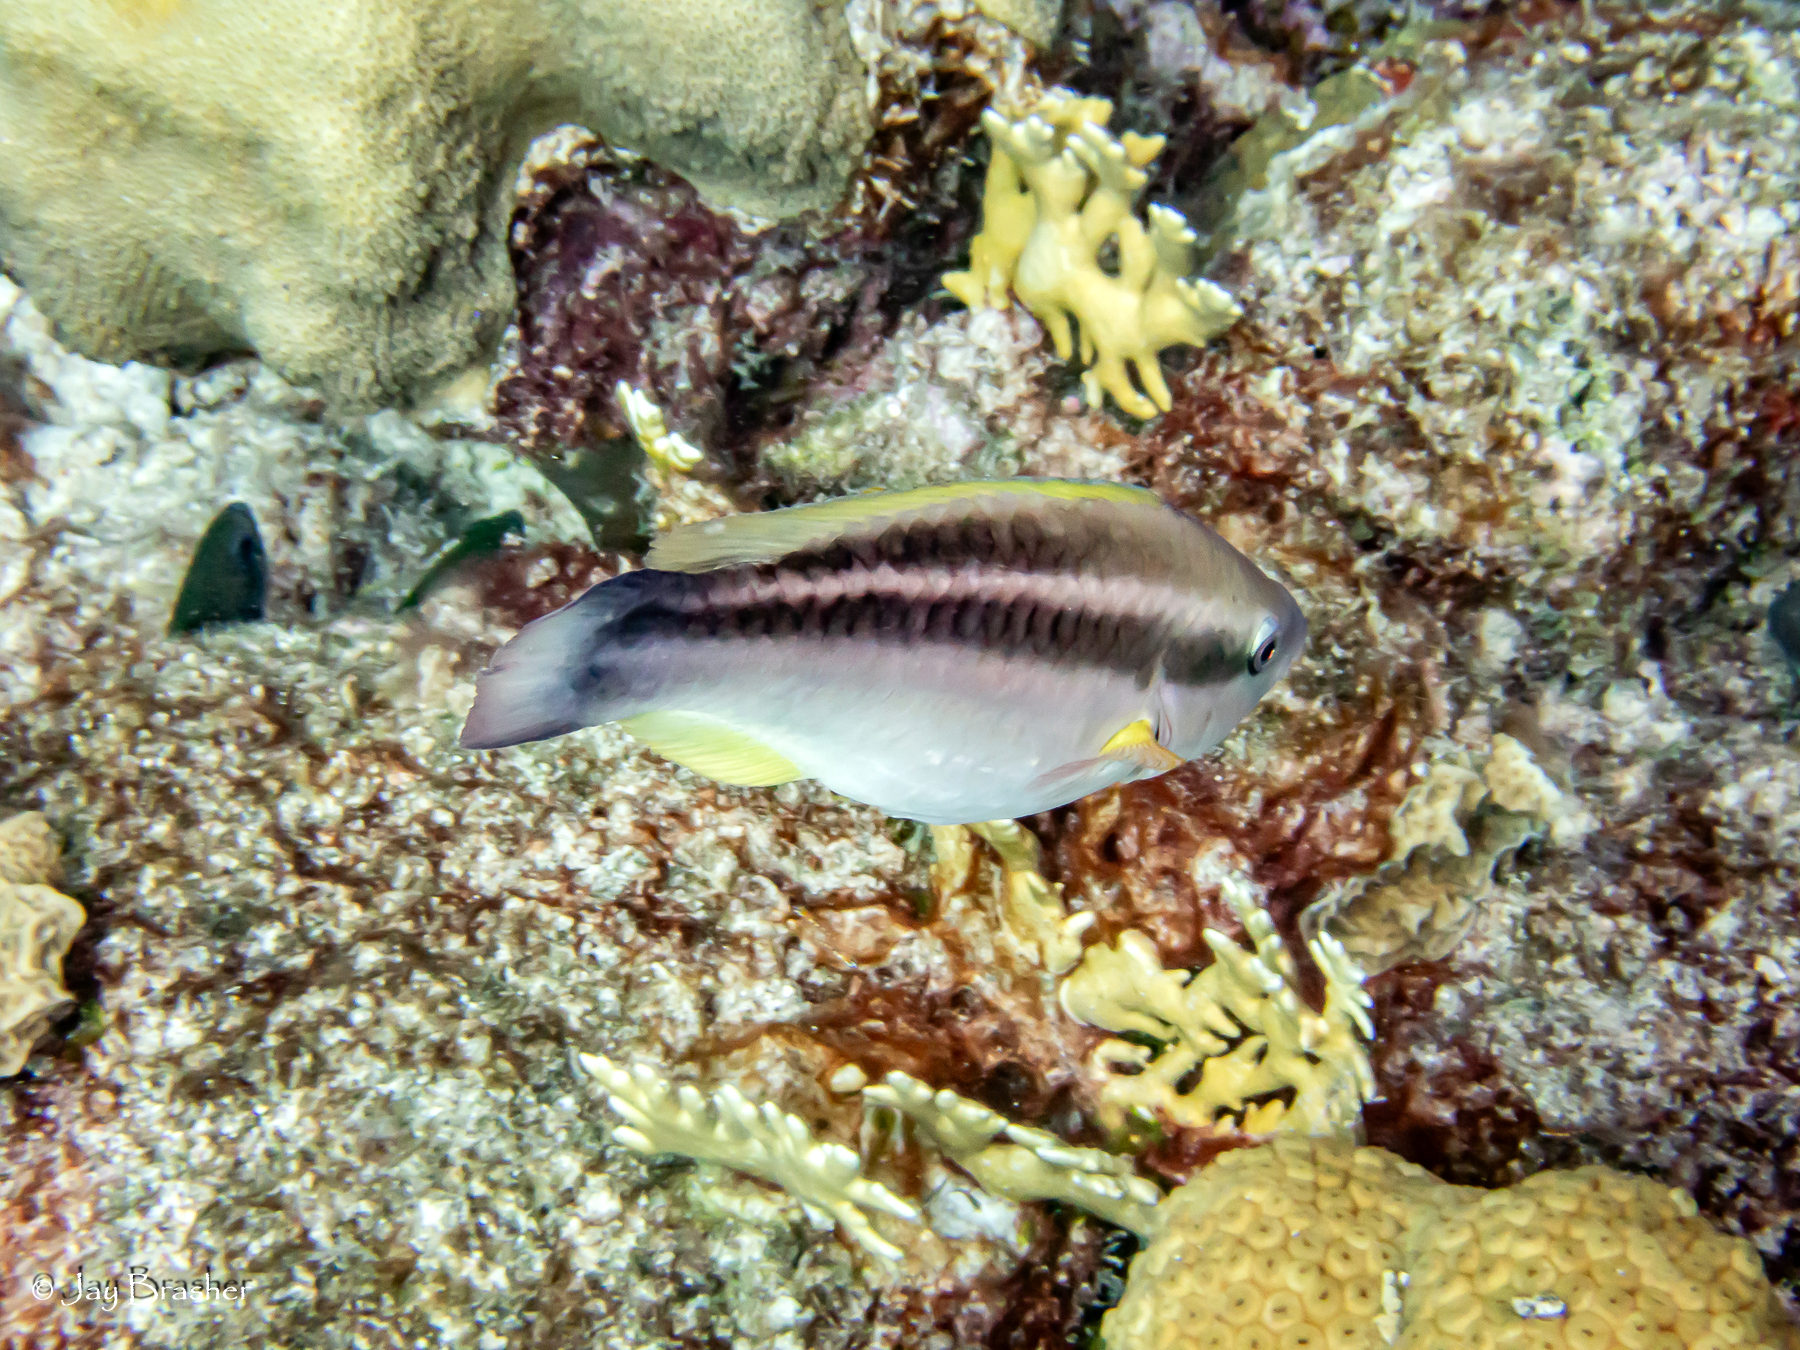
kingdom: Animalia
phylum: Chordata
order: Perciformes
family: Scaridae
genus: Scarus
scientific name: Scarus taeniopterus
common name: Princess parrotfish
